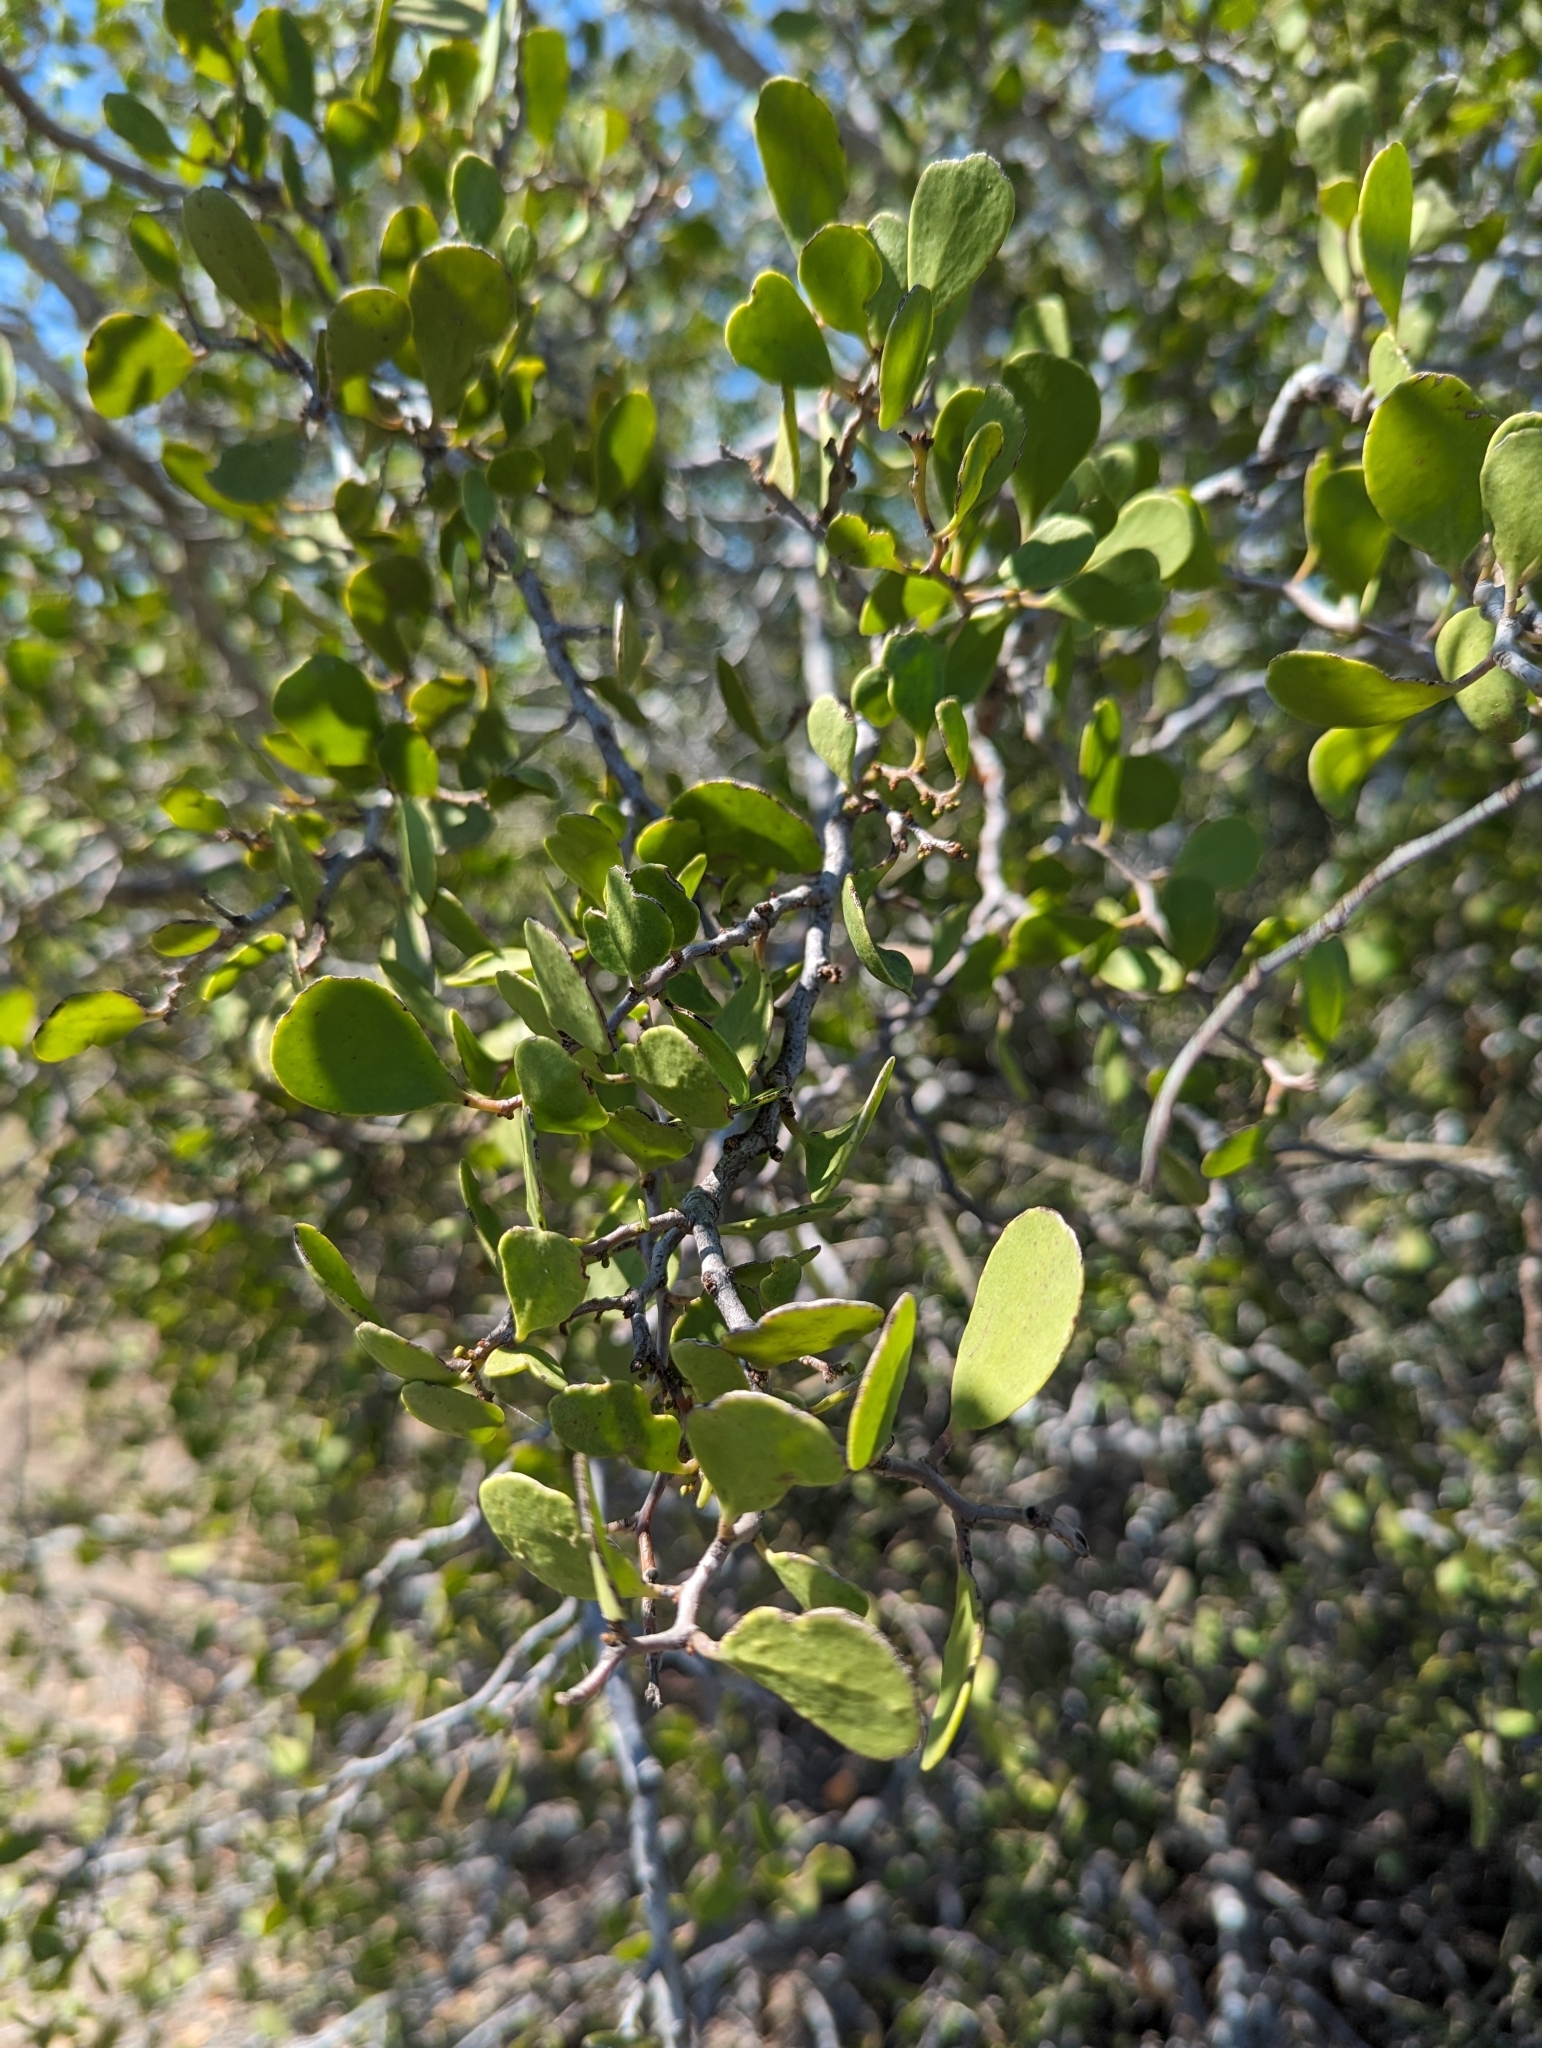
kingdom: Plantae
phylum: Tracheophyta
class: Magnoliopsida
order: Celastrales
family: Celastraceae
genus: Tricerma
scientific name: Tricerma phyllanthoides
